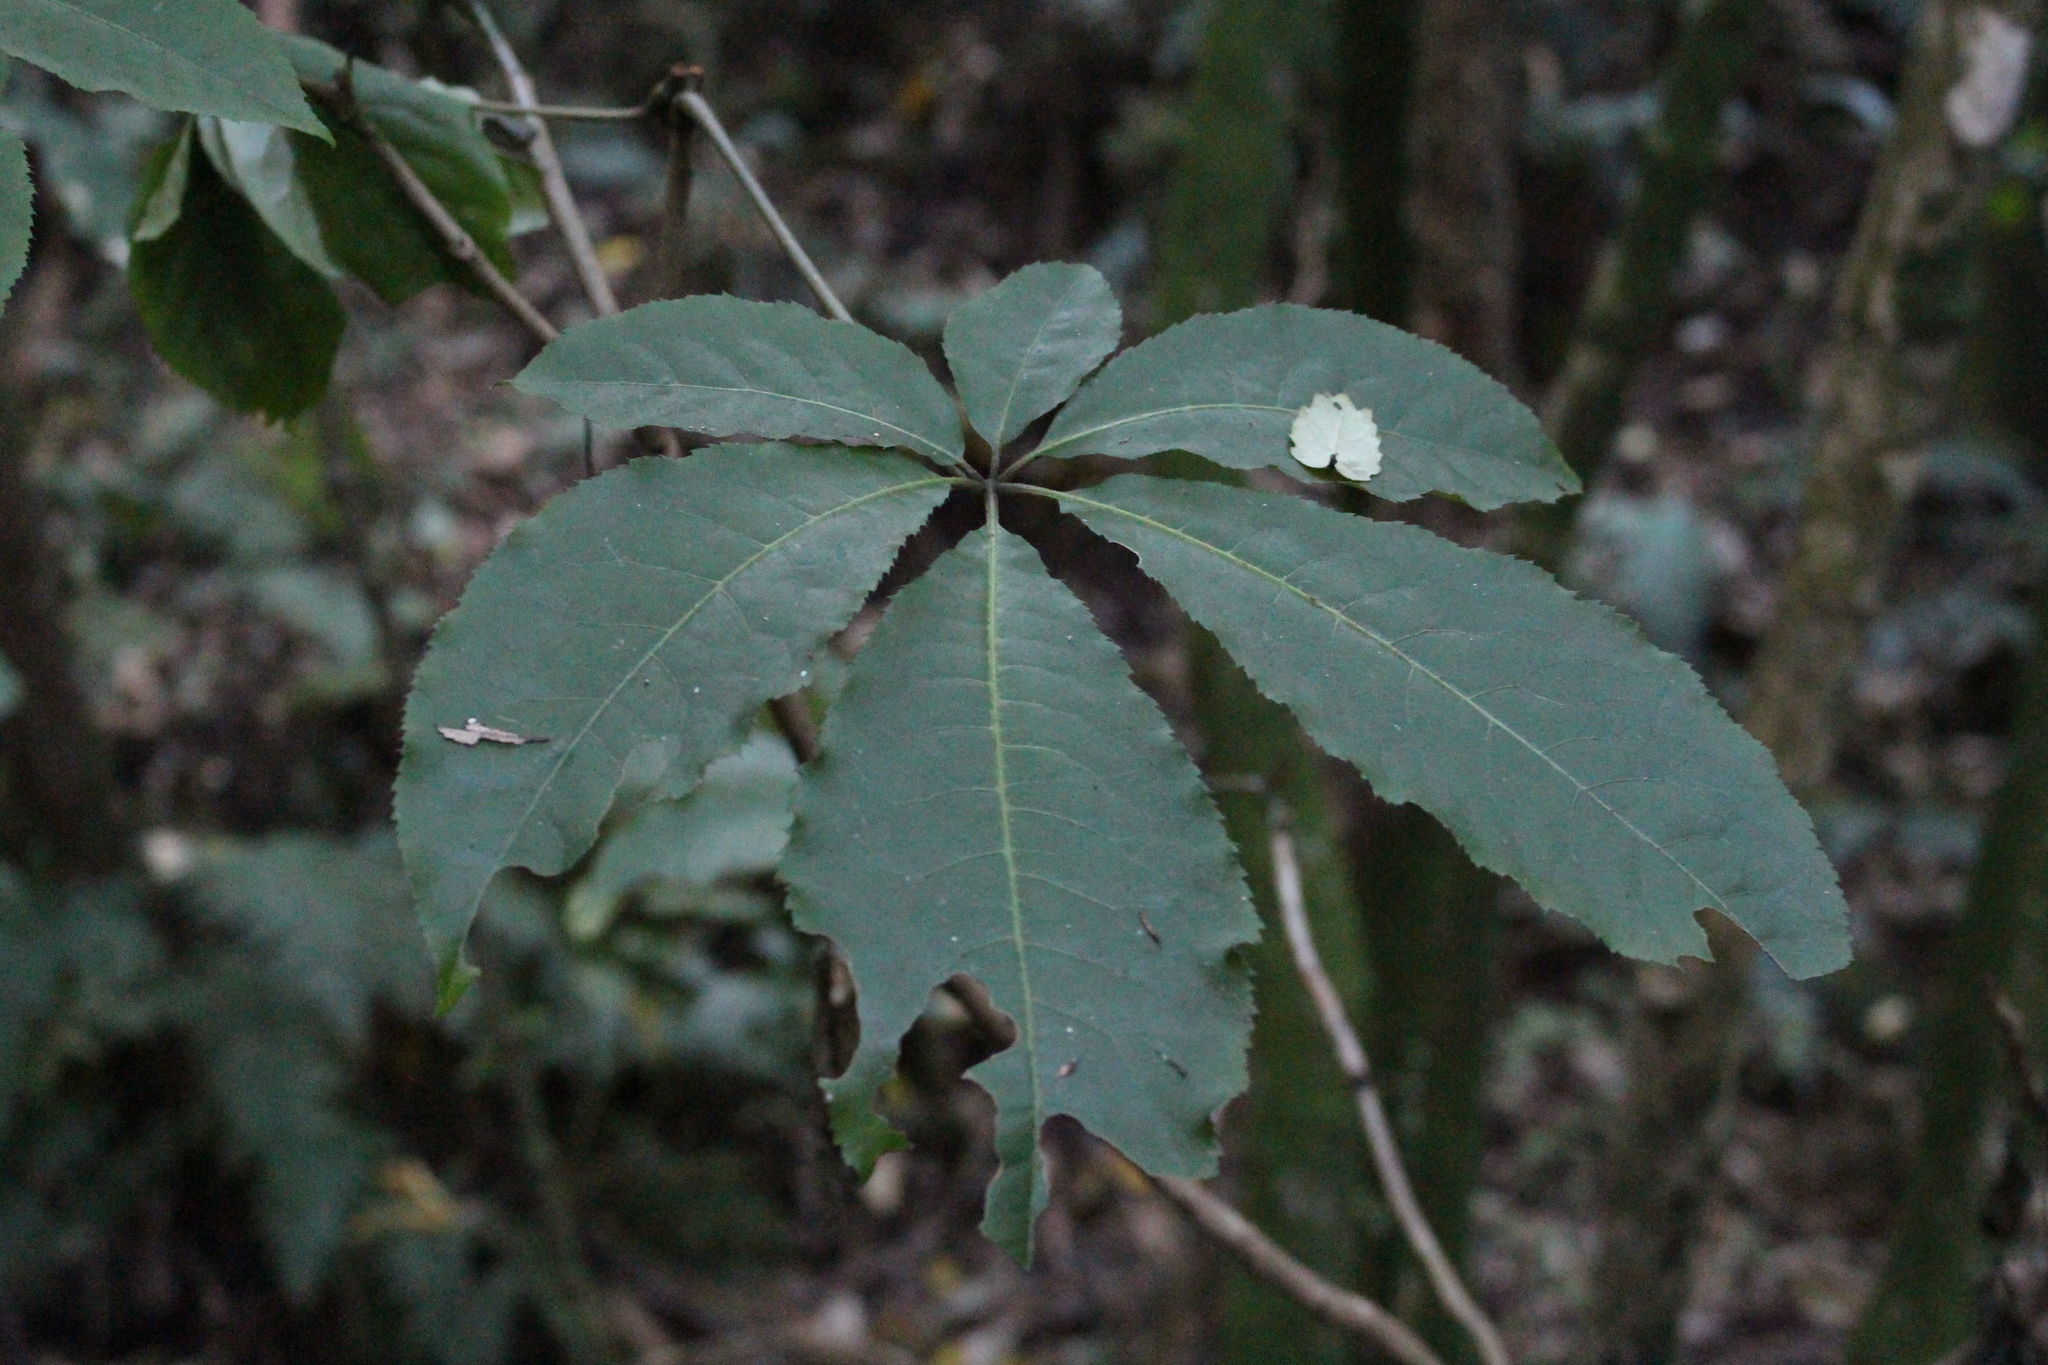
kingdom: Plantae
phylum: Tracheophyta
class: Magnoliopsida
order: Apiales
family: Araliaceae
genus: Schefflera
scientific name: Schefflera digitata
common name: Pate
